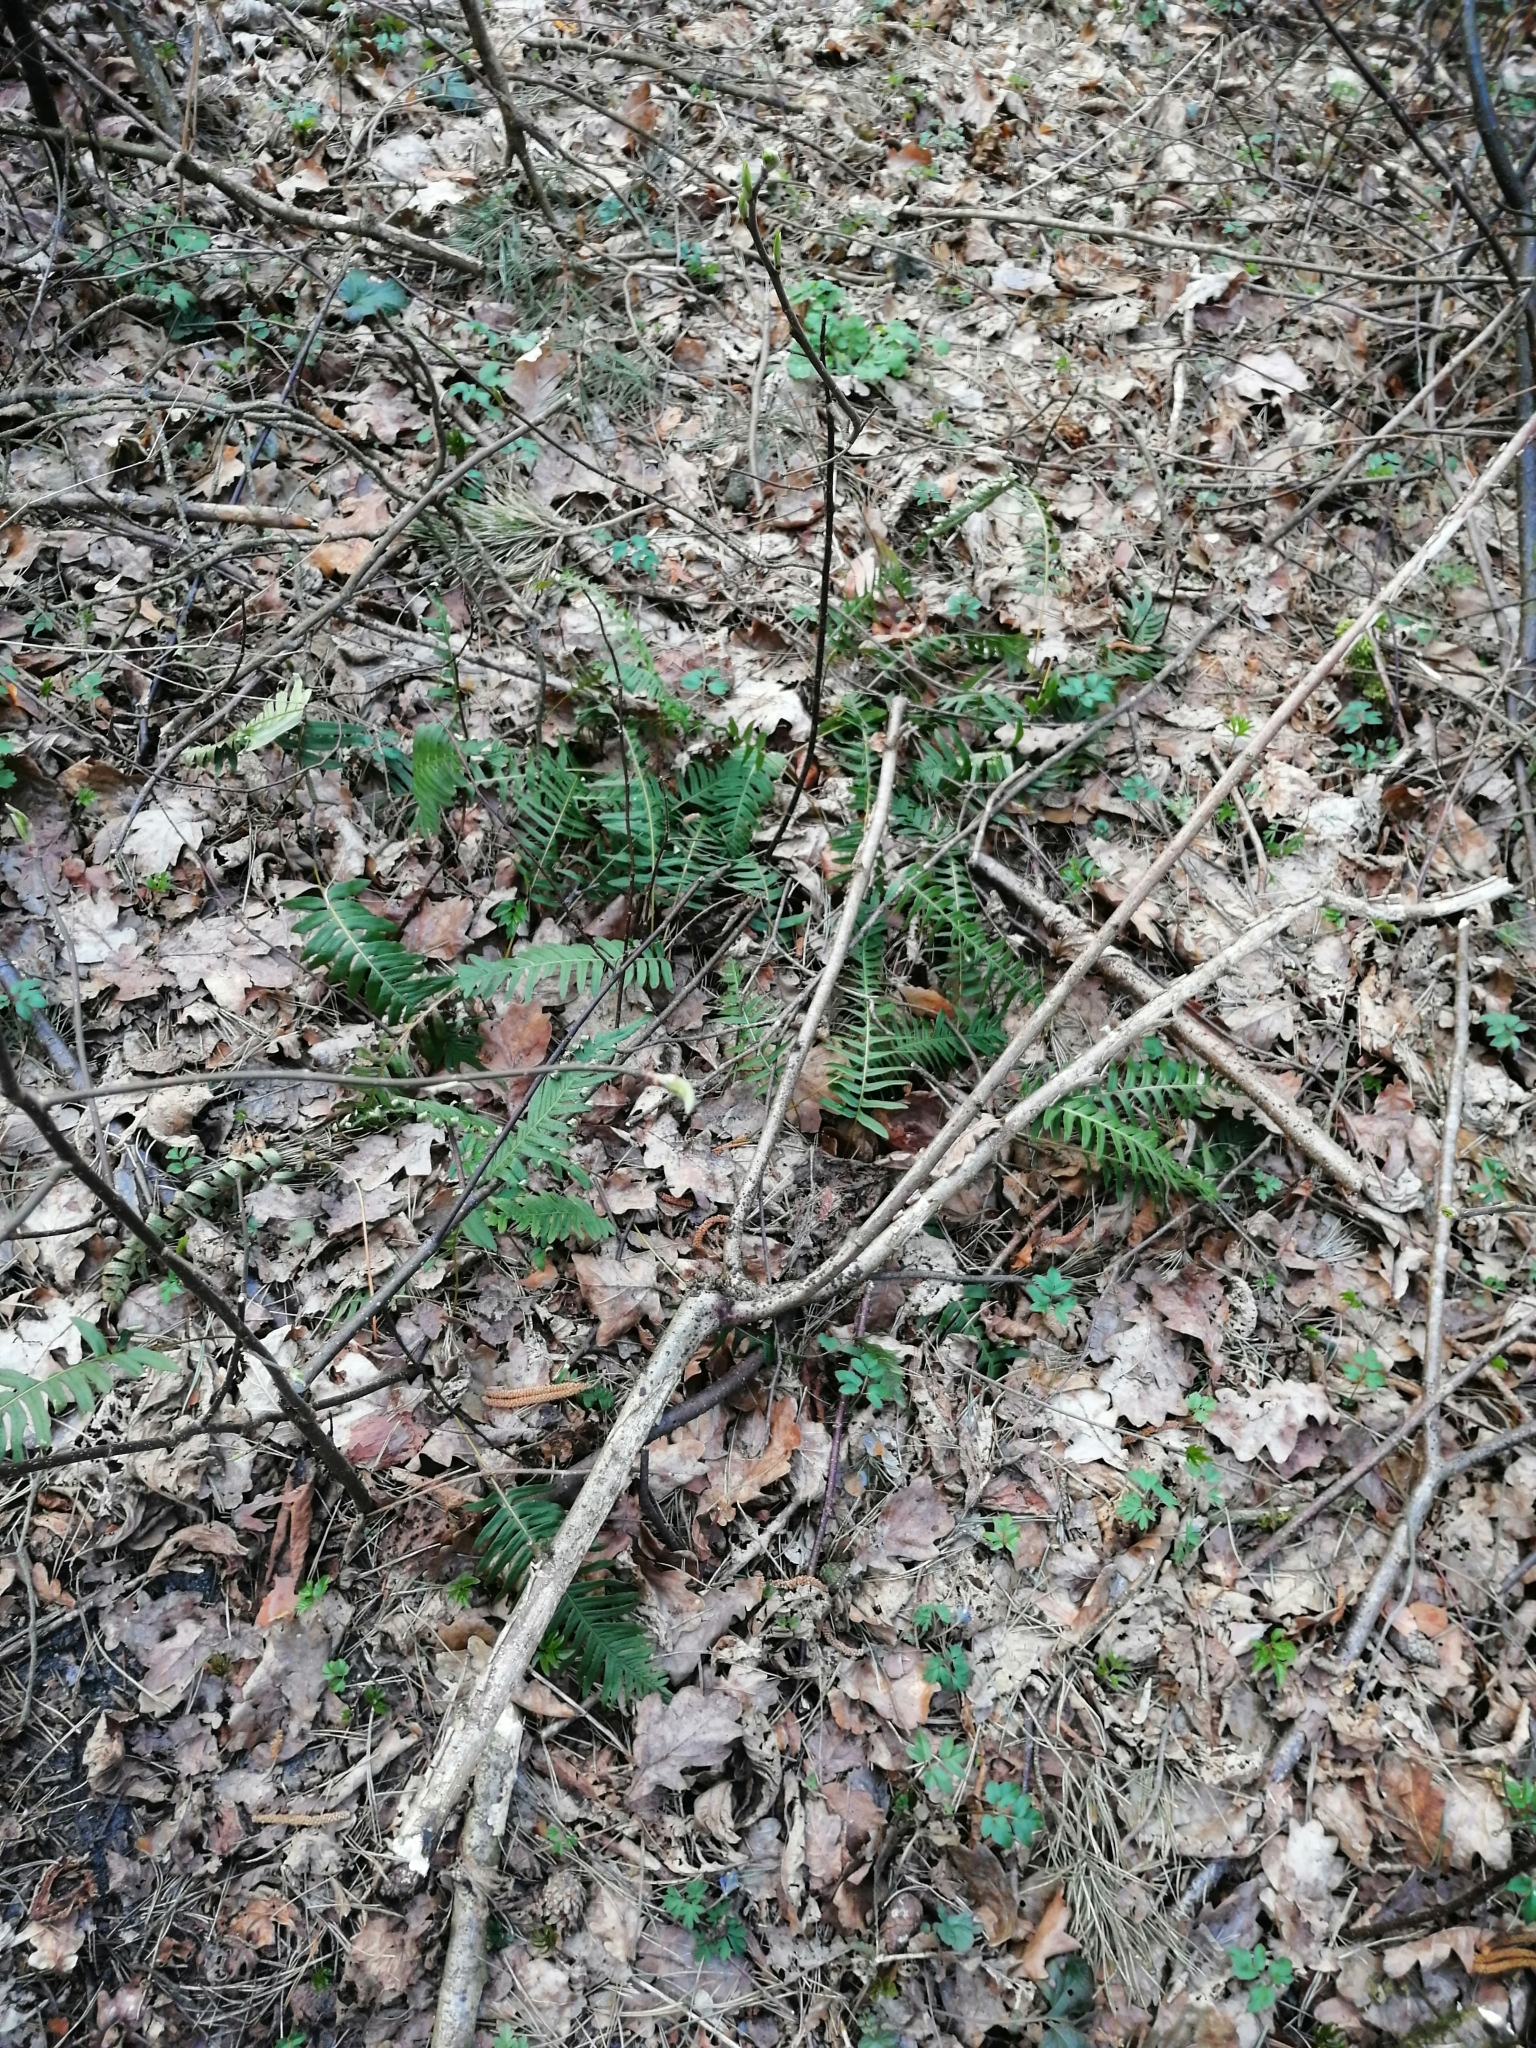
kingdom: Plantae
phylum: Tracheophyta
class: Polypodiopsida
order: Polypodiales
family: Polypodiaceae
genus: Polypodium
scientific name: Polypodium vulgare
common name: Common polypody
